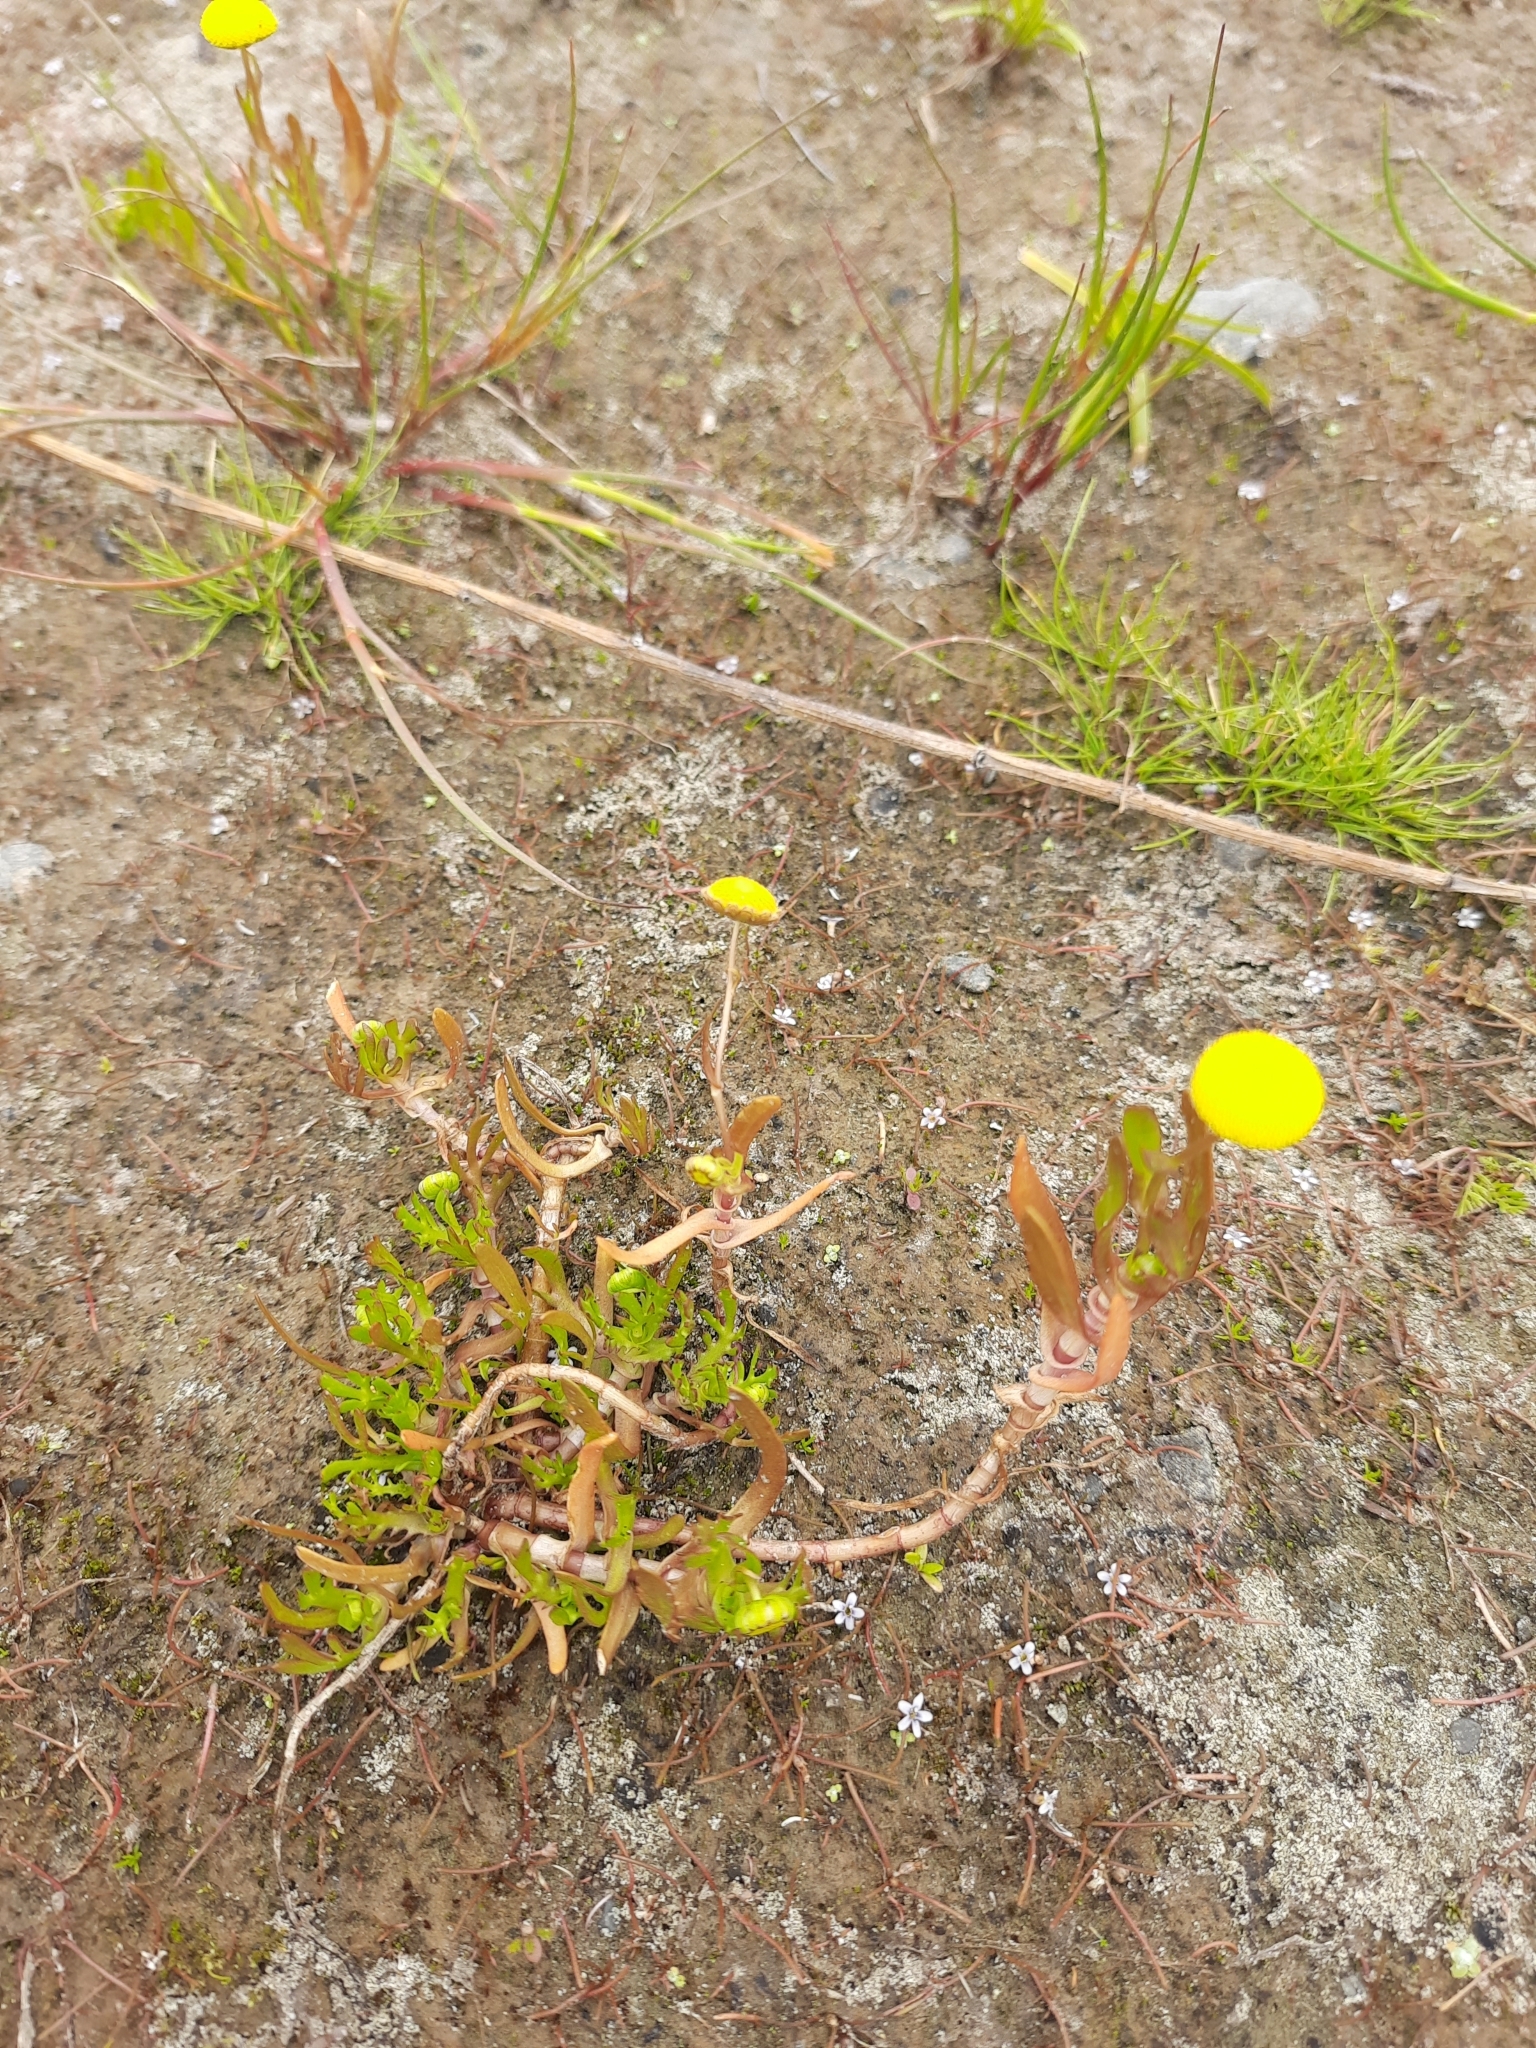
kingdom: Plantae
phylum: Tracheophyta
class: Magnoliopsida
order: Asterales
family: Asteraceae
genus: Cotula
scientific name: Cotula coronopifolia
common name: Buttonweed
